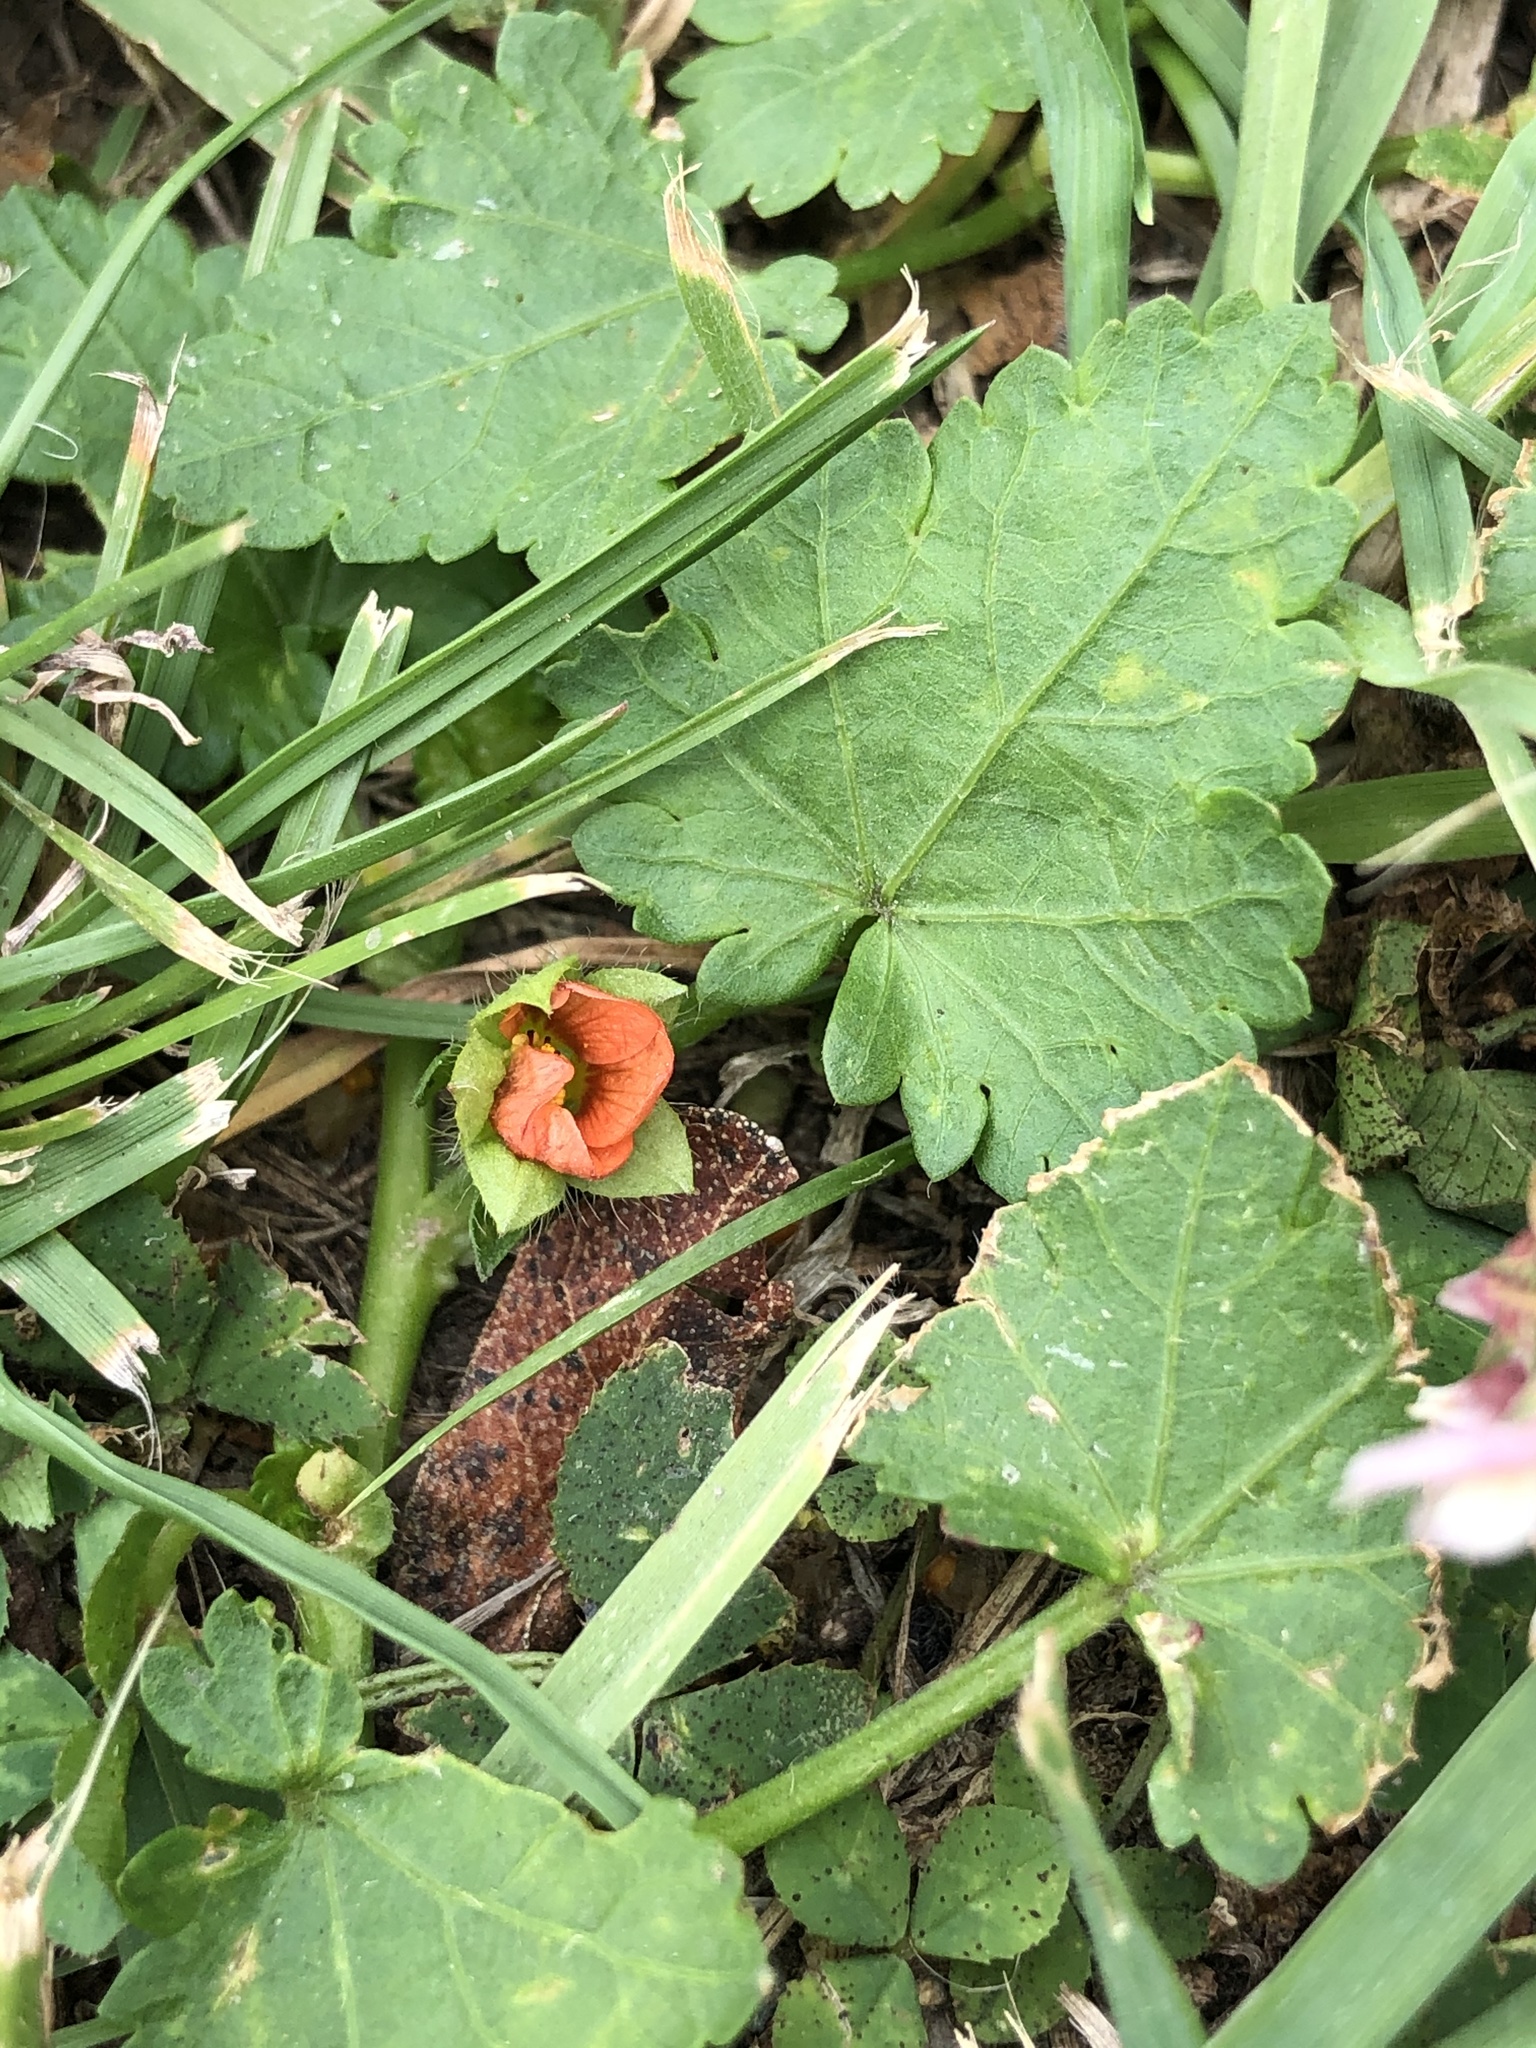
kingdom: Plantae
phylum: Tracheophyta
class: Magnoliopsida
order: Malvales
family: Malvaceae
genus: Modiola
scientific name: Modiola caroliniana
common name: Carolina bristlemallow
